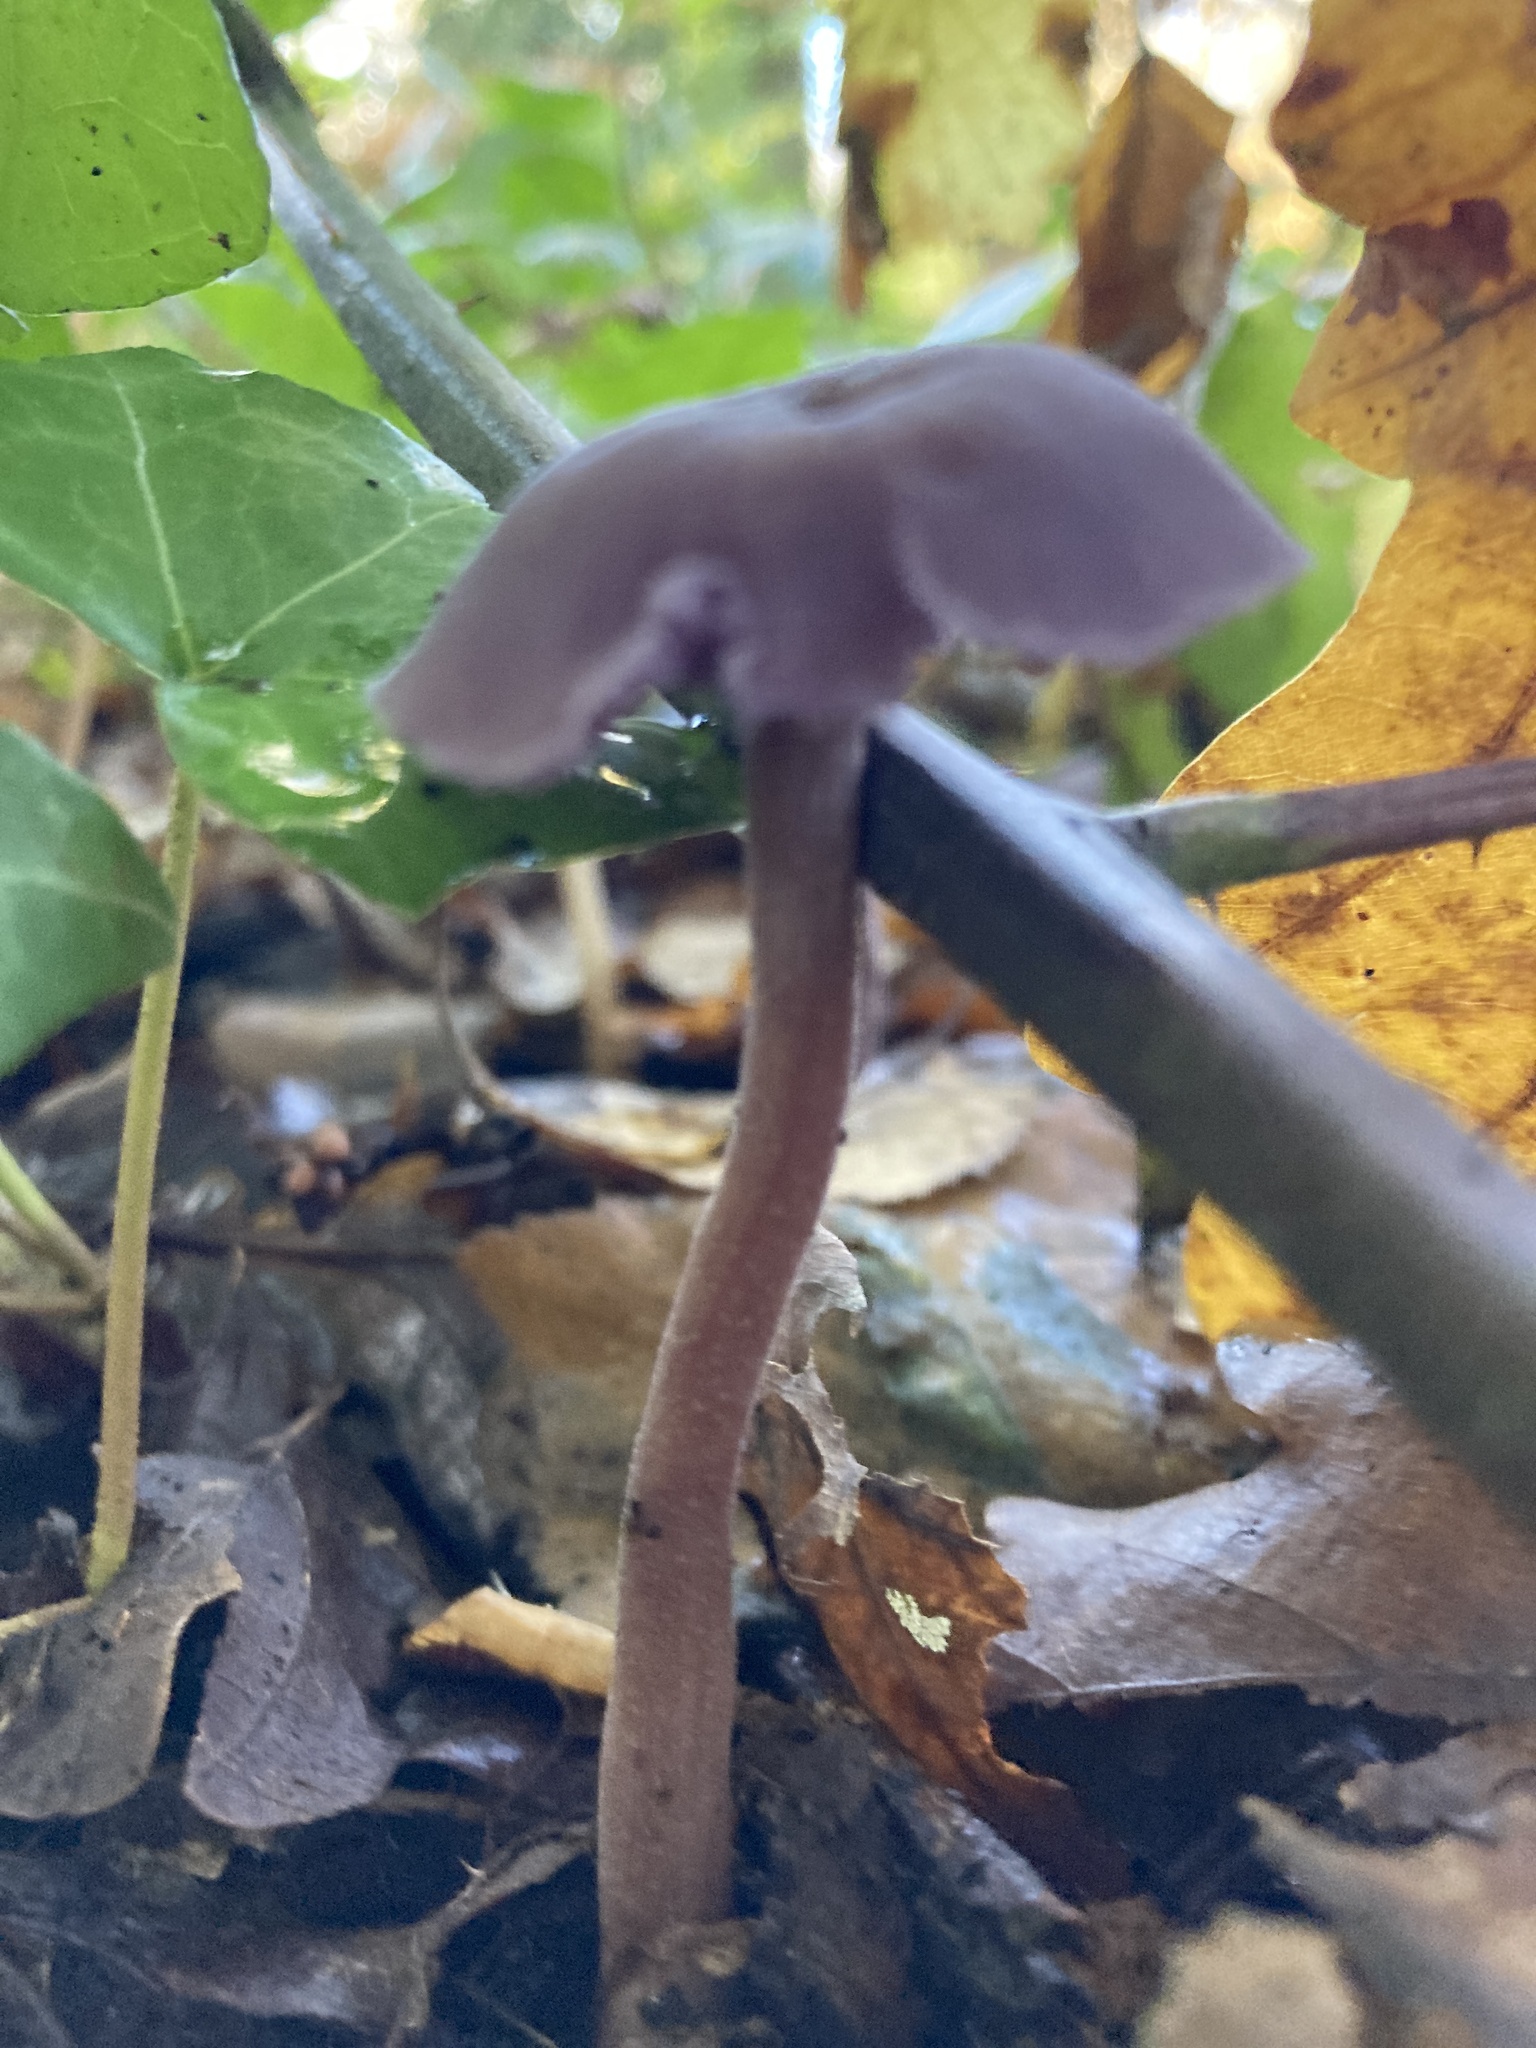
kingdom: Fungi
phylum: Basidiomycota
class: Agaricomycetes
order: Agaricales
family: Hydnangiaceae
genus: Laccaria
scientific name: Laccaria amethystina
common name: Amethyst deceiver
